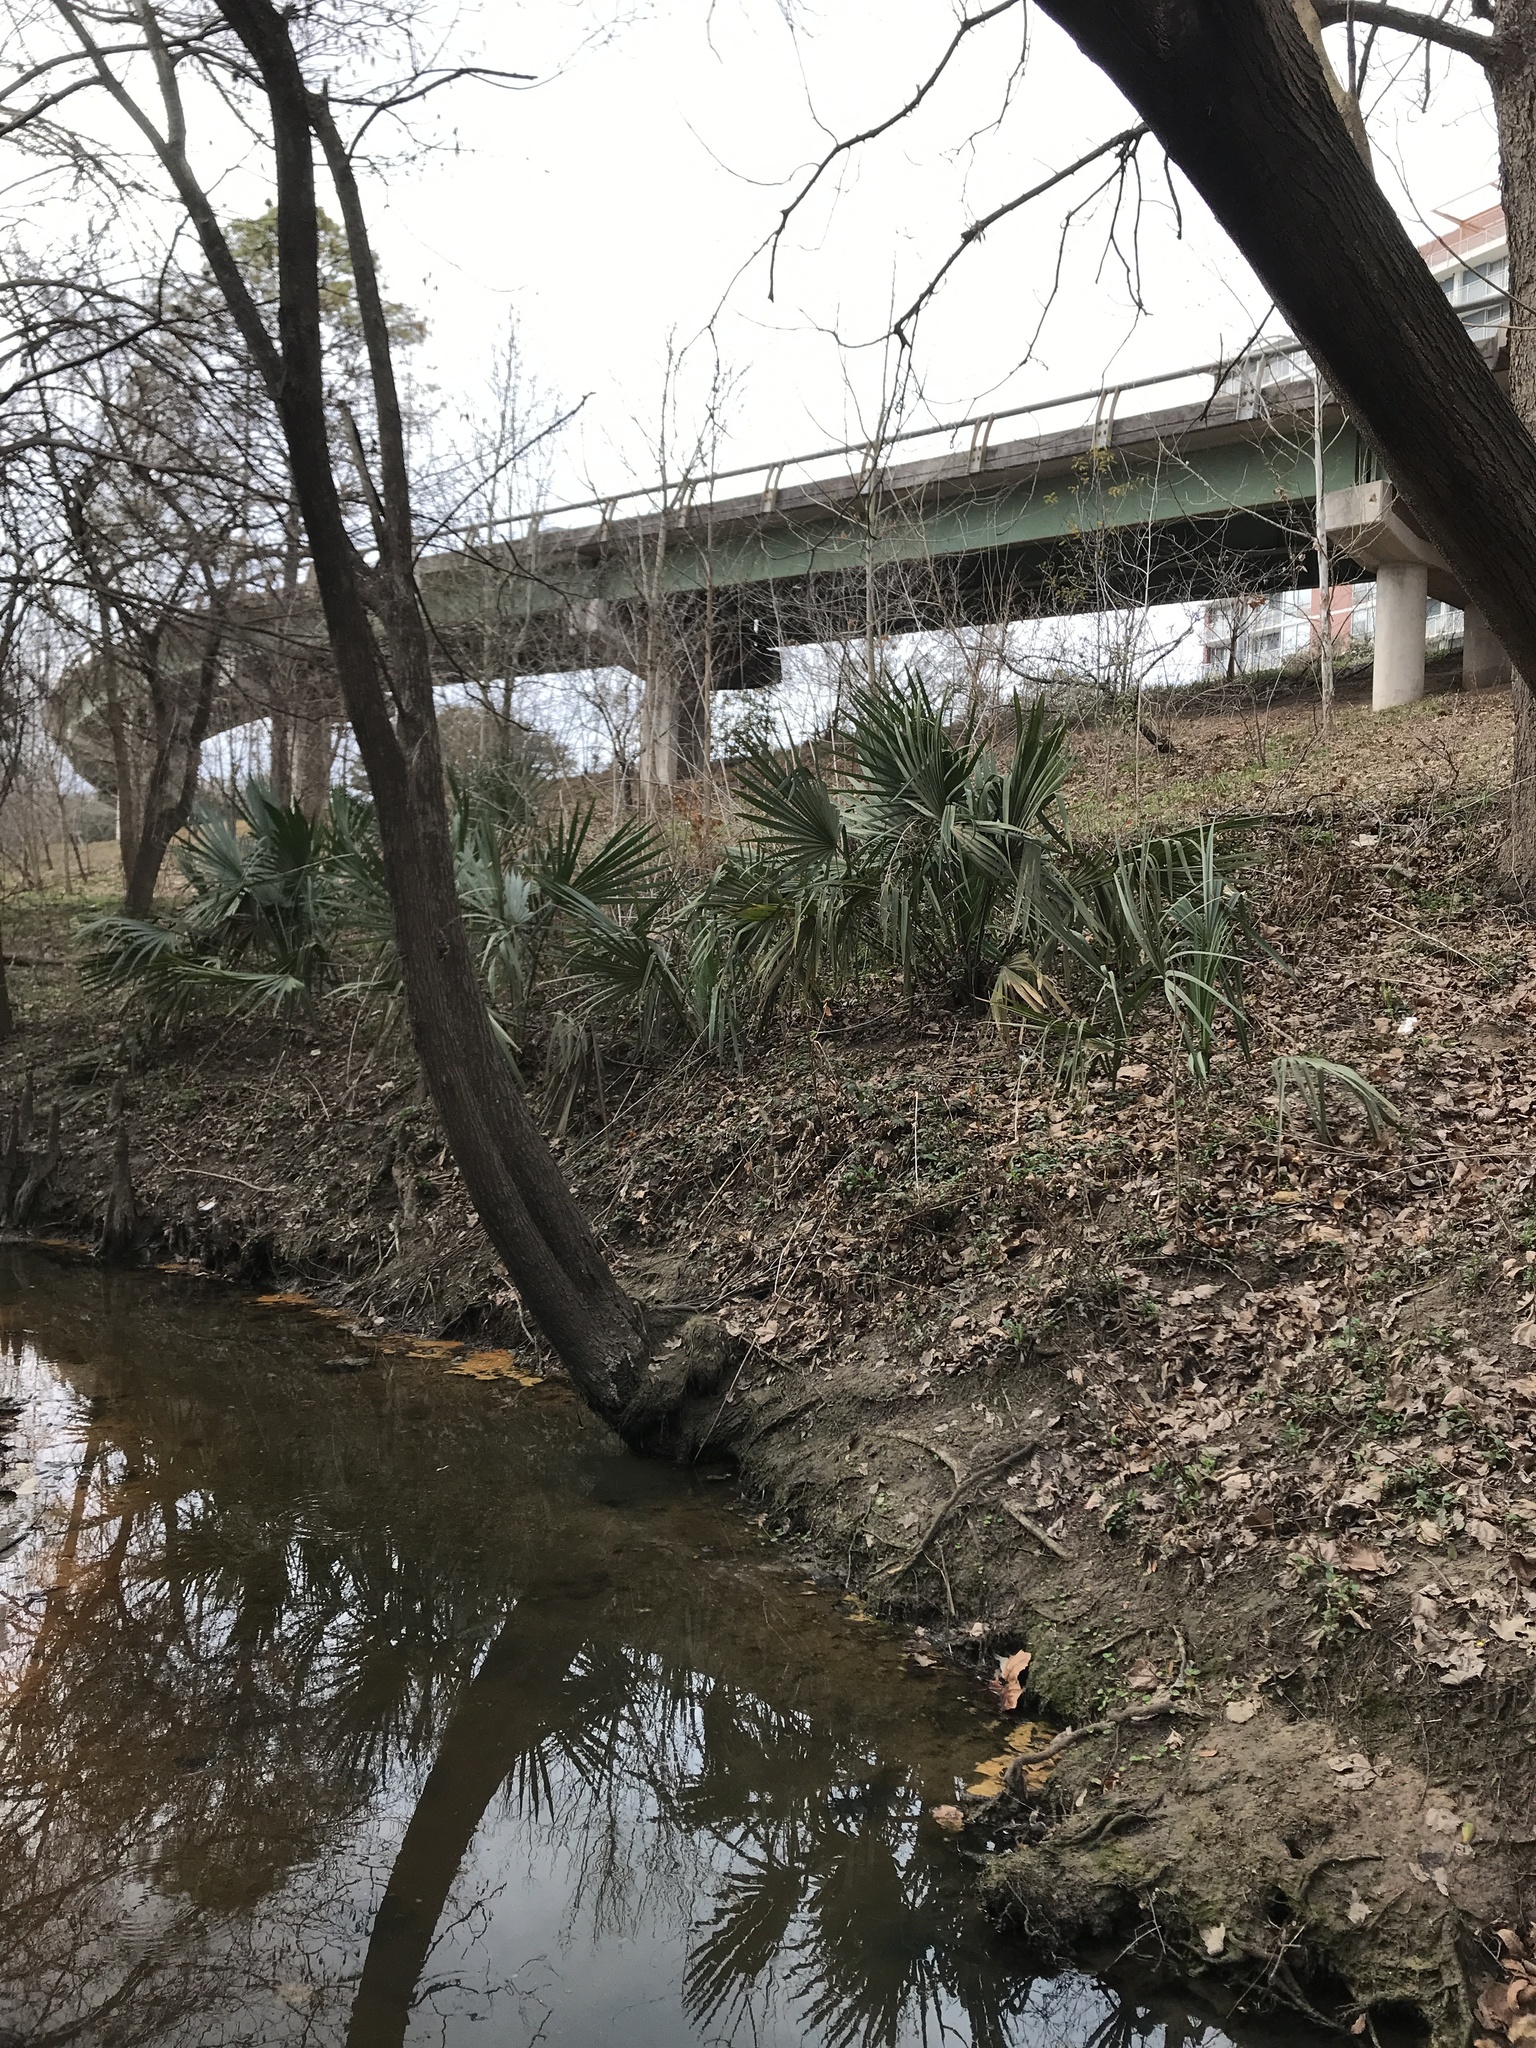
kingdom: Plantae
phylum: Tracheophyta
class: Liliopsida
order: Arecales
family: Arecaceae
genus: Sabal
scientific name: Sabal minor
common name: Dwarf palmetto
